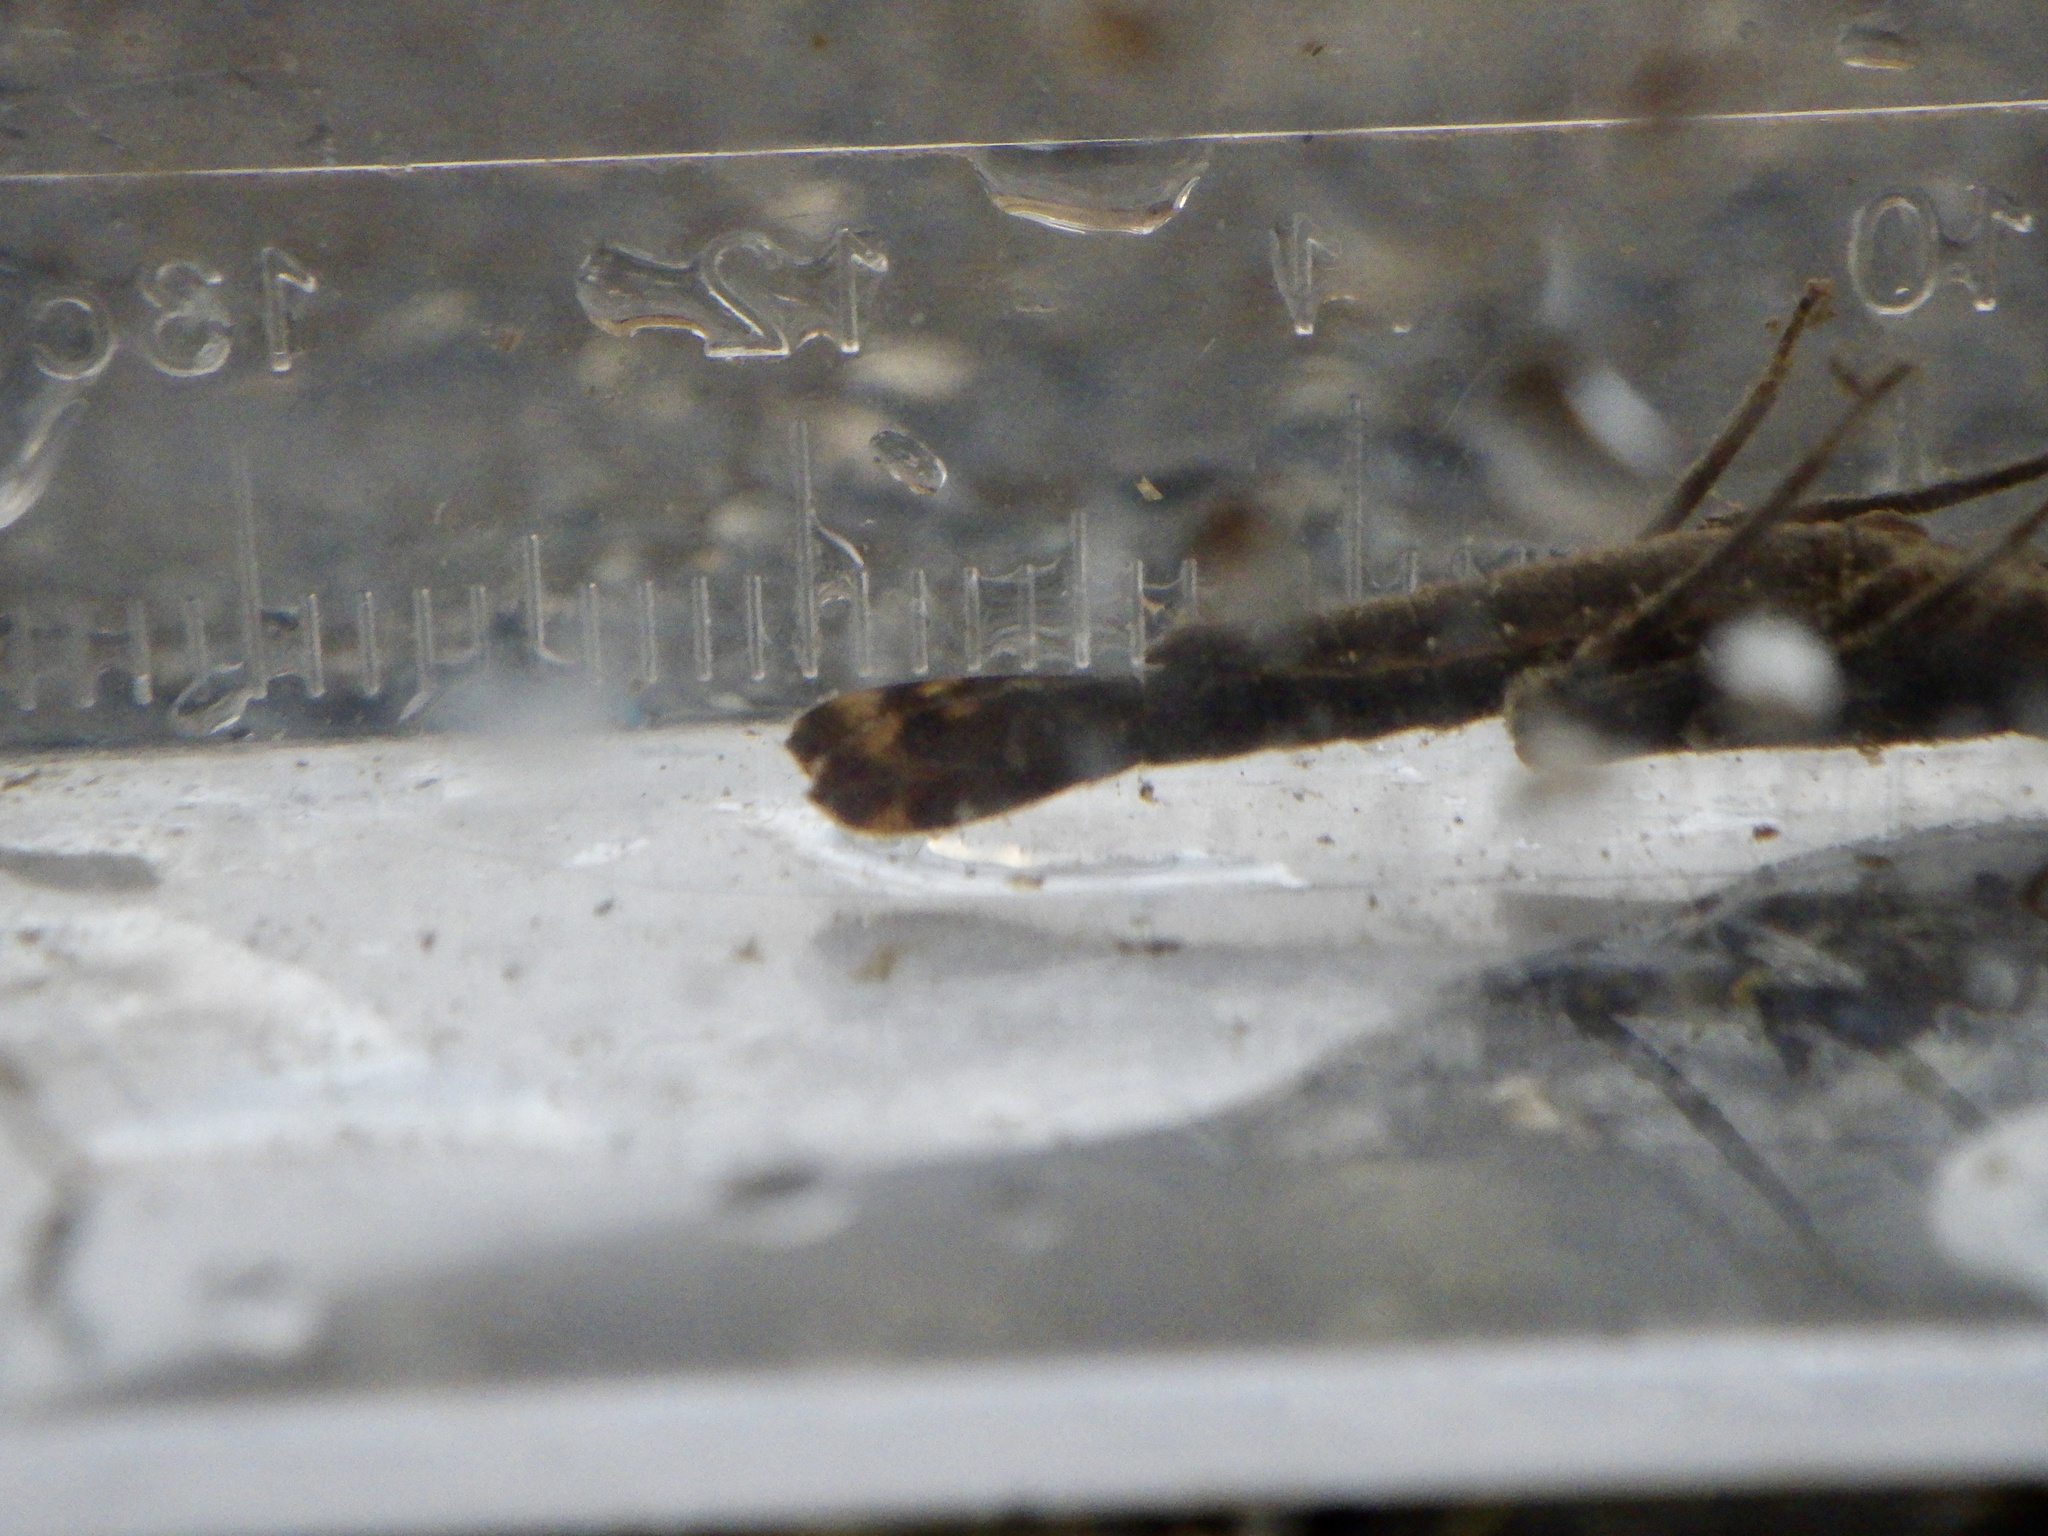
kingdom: Animalia
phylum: Arthropoda
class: Insecta
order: Odonata
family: Calopterygidae
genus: Mnais
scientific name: Mnais pruinosa
